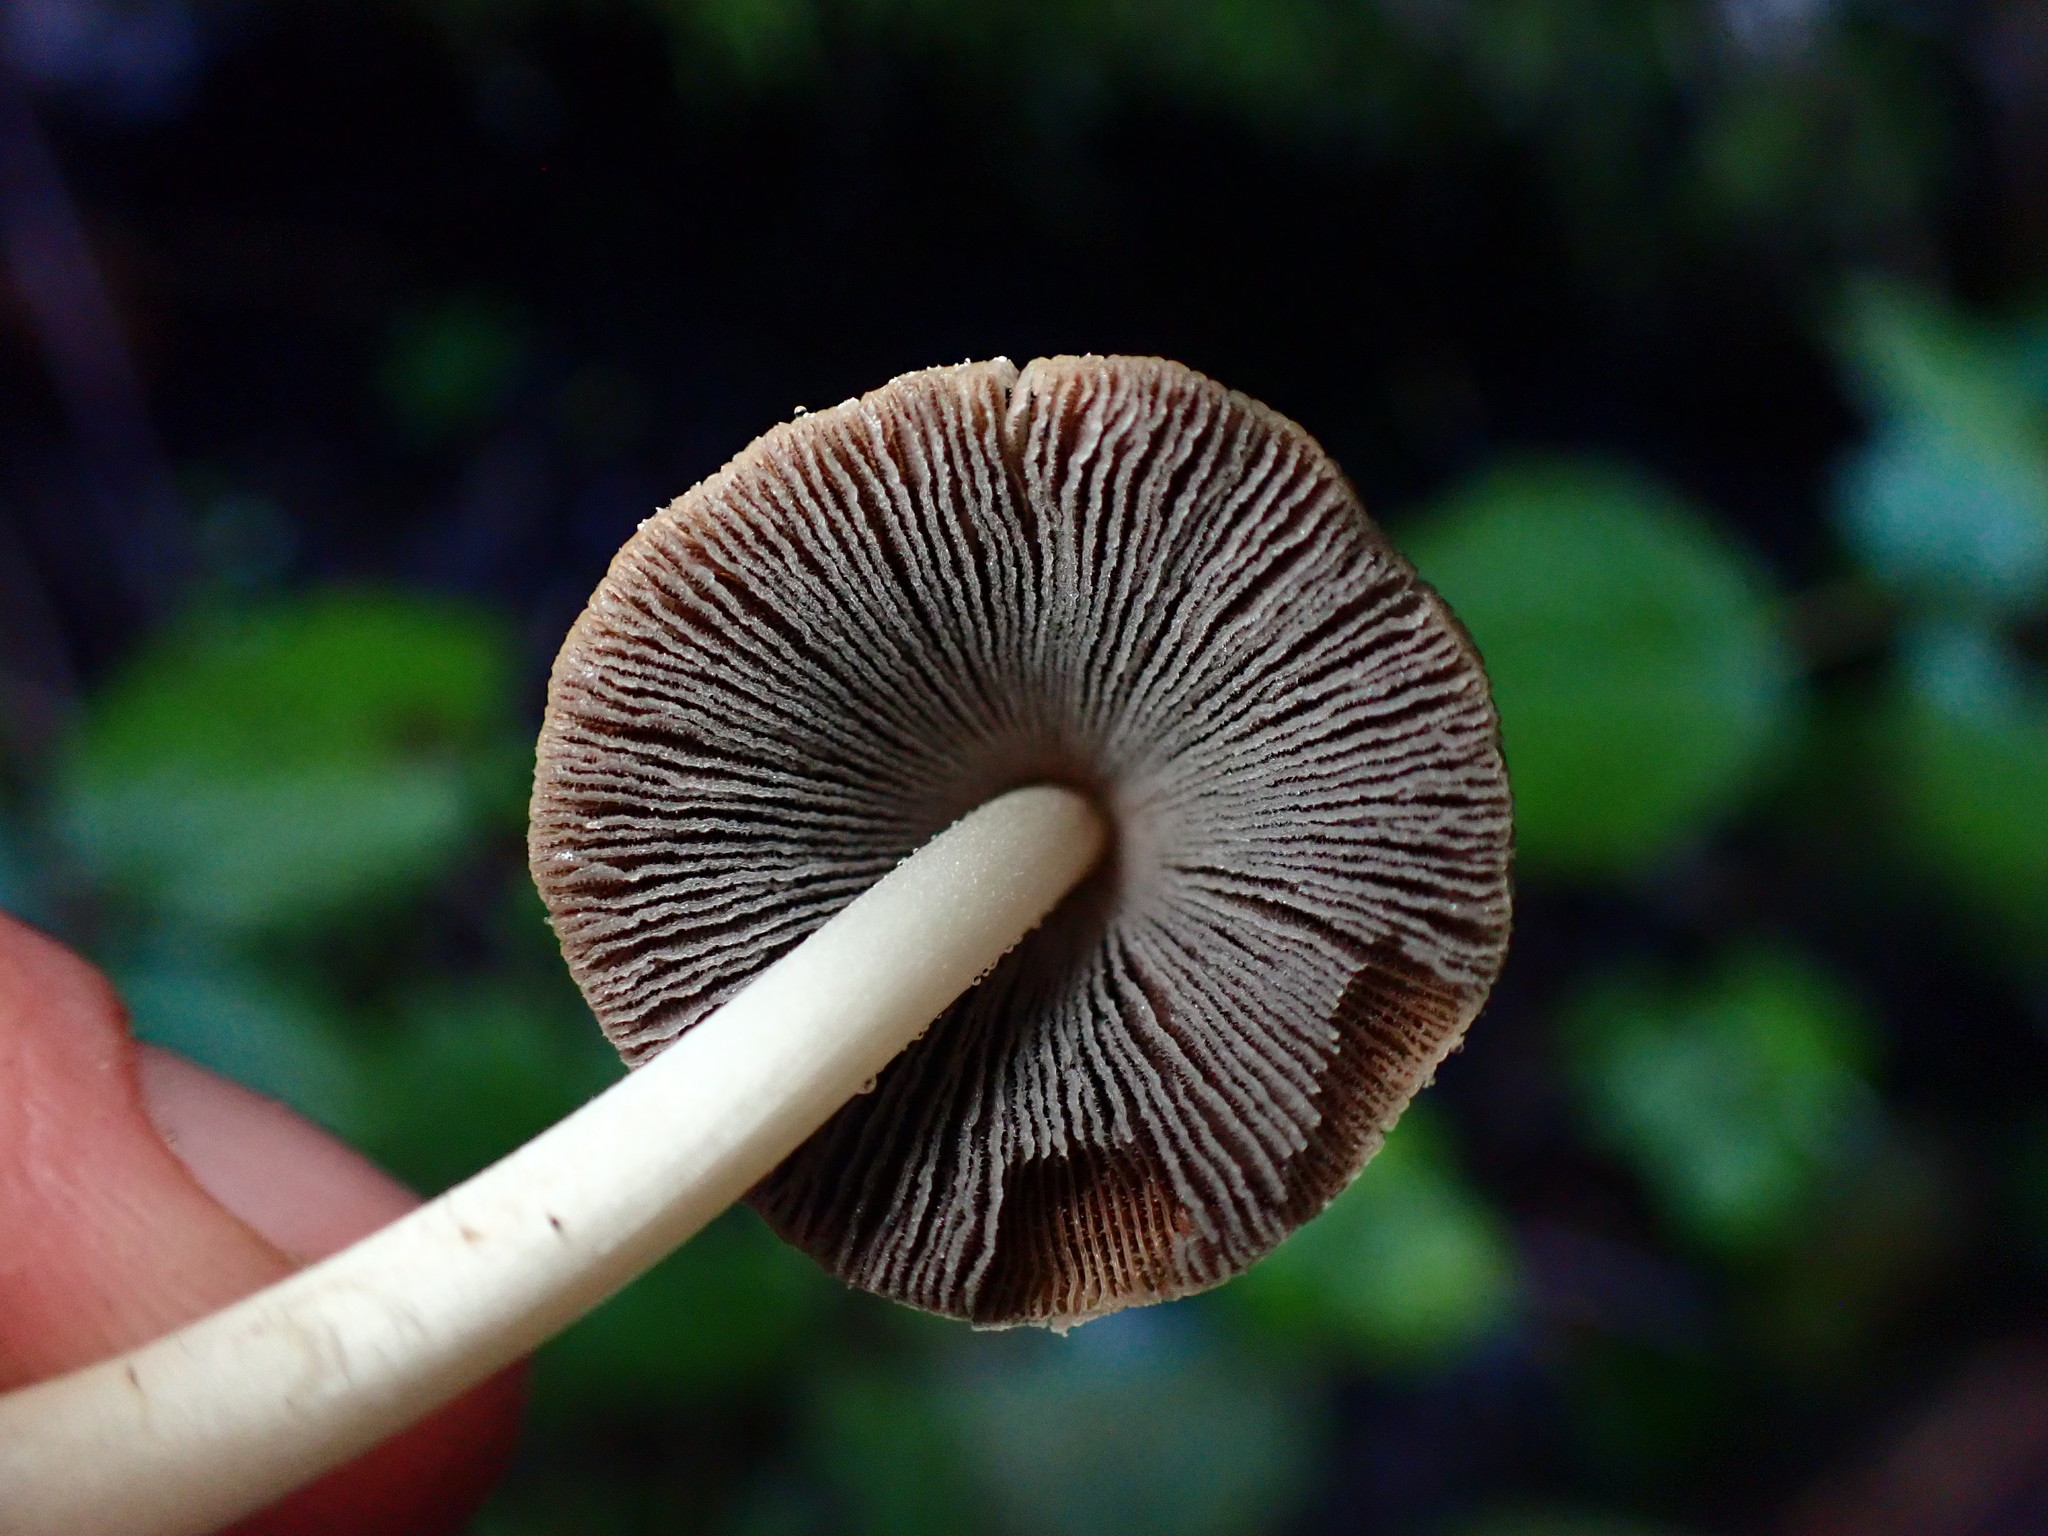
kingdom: Fungi
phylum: Basidiomycota
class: Agaricomycetes
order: Agaricales
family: Psathyrellaceae
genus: Coprinellus
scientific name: Coprinellus micaceus
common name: Glistening ink-cap
